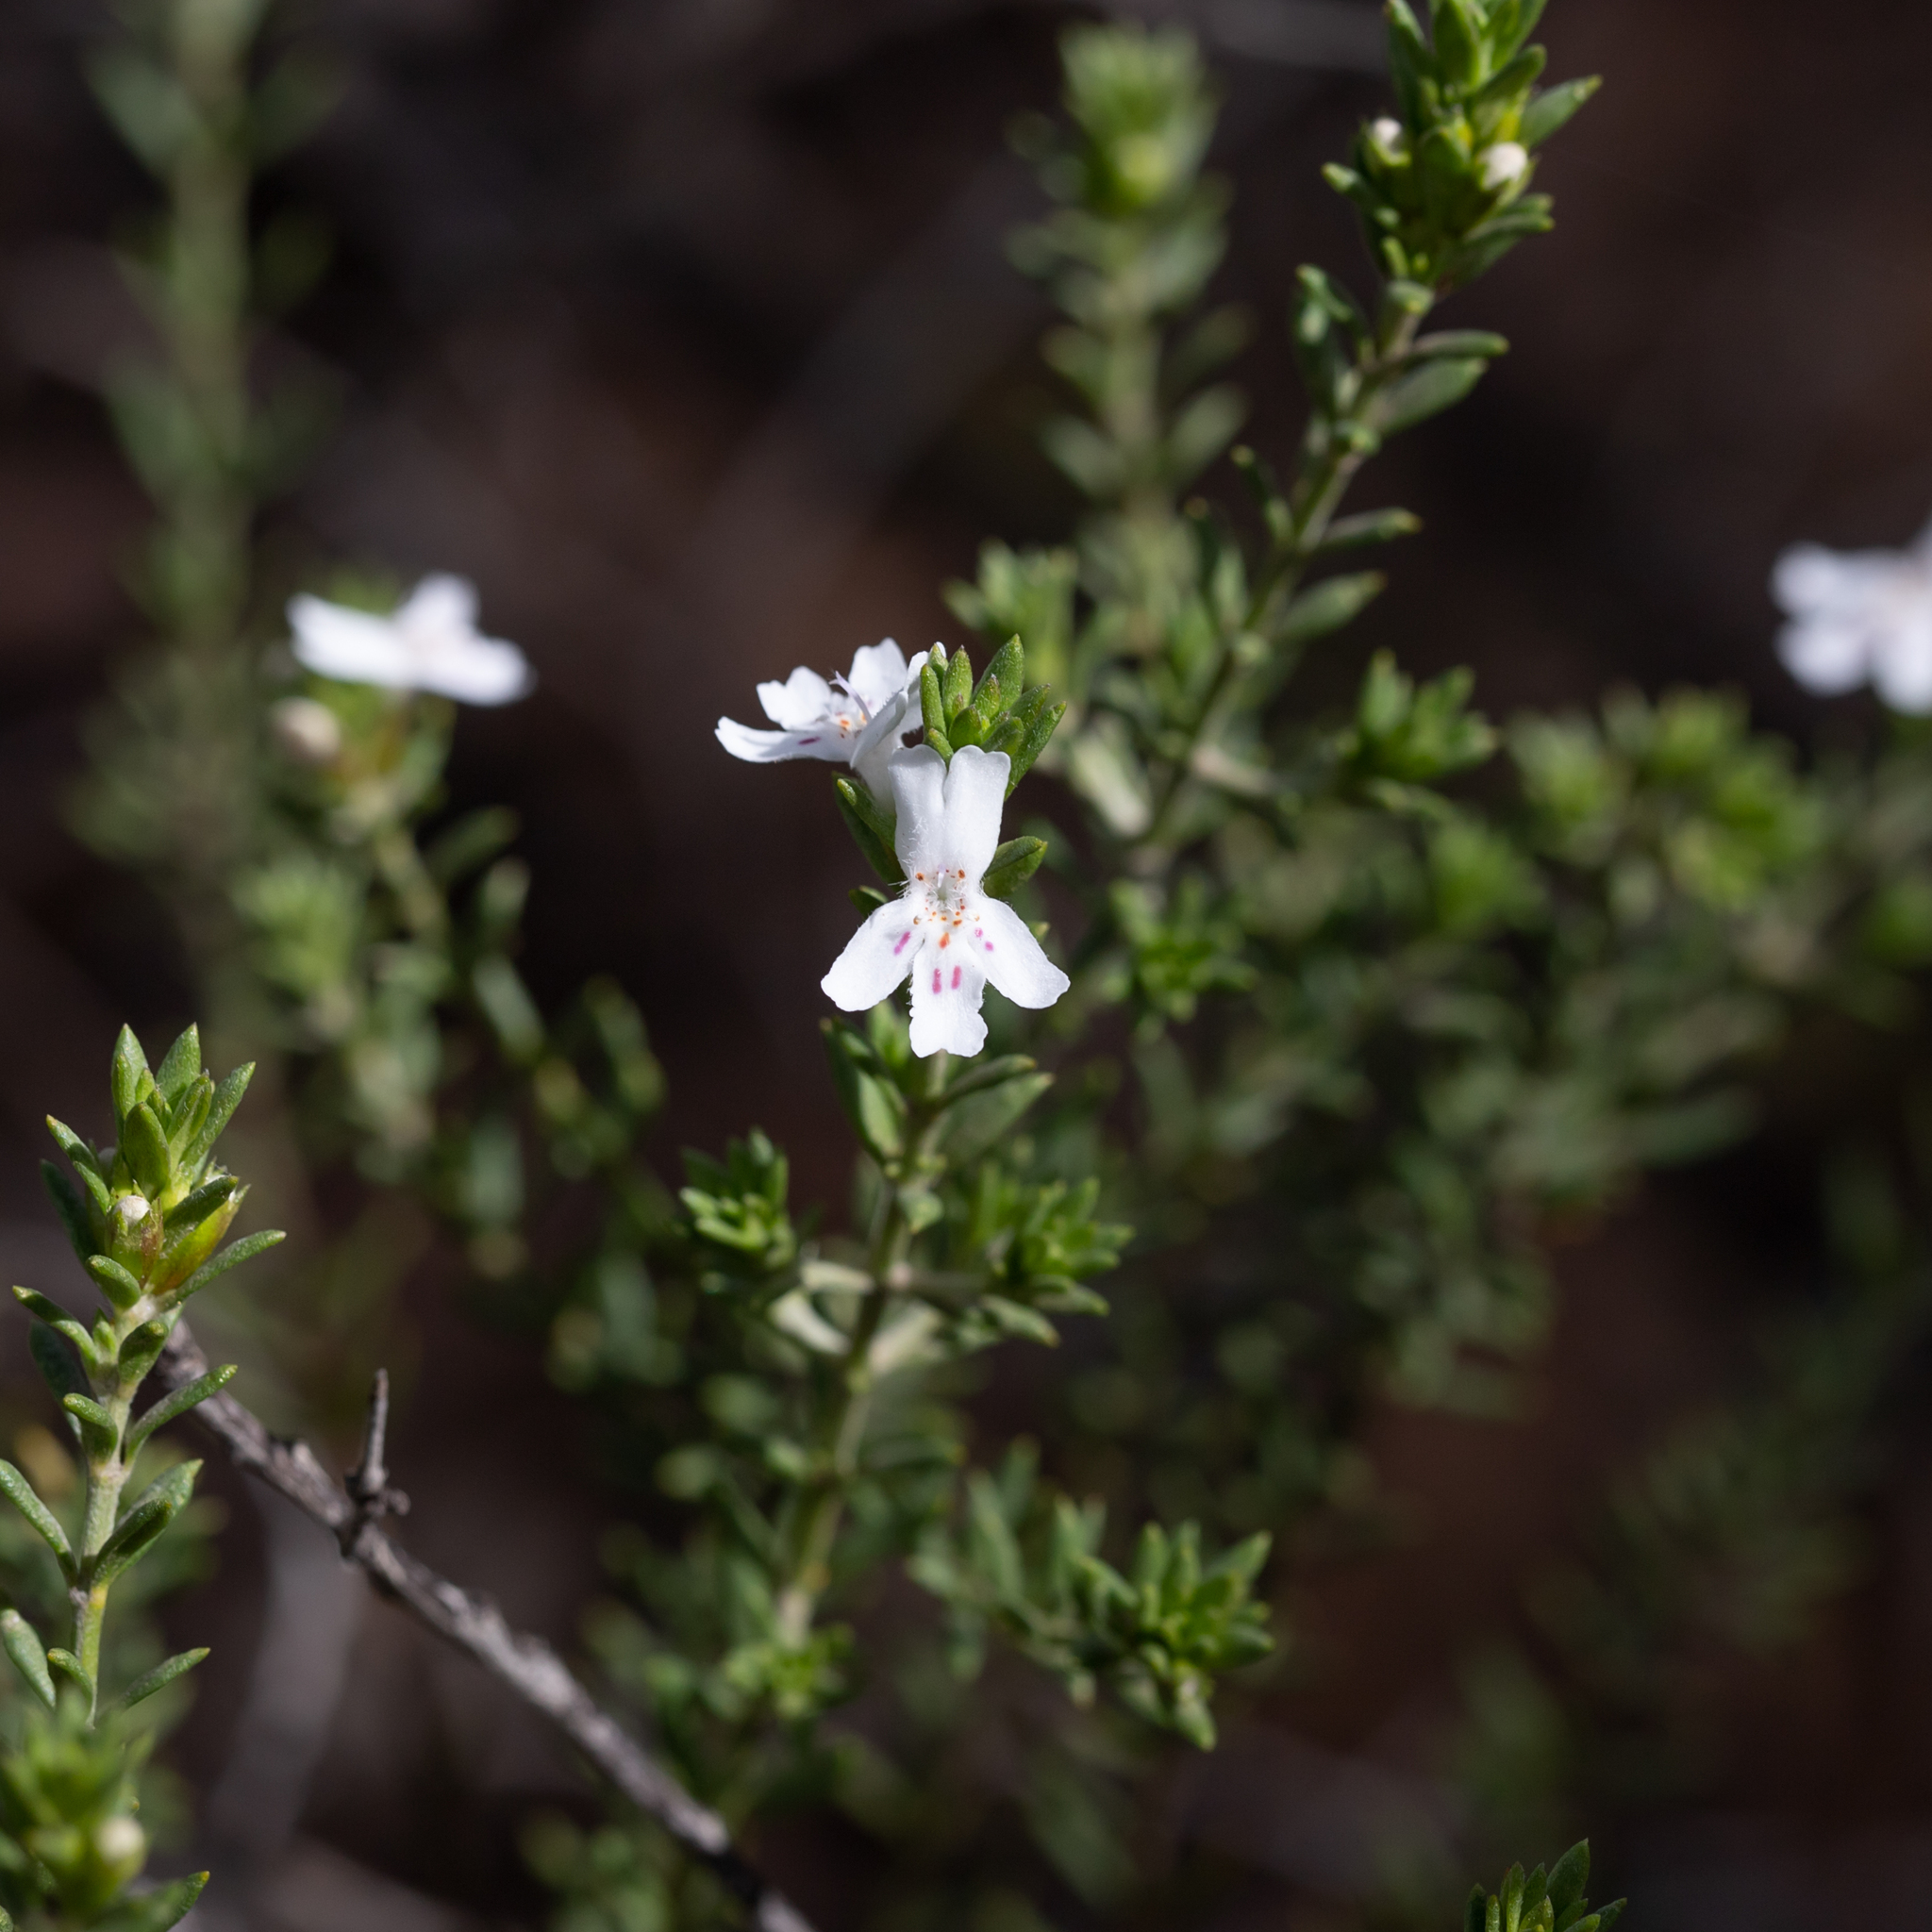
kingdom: Plantae
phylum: Tracheophyta
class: Magnoliopsida
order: Lamiales
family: Lamiaceae
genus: Westringia
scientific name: Westringia cheelii
